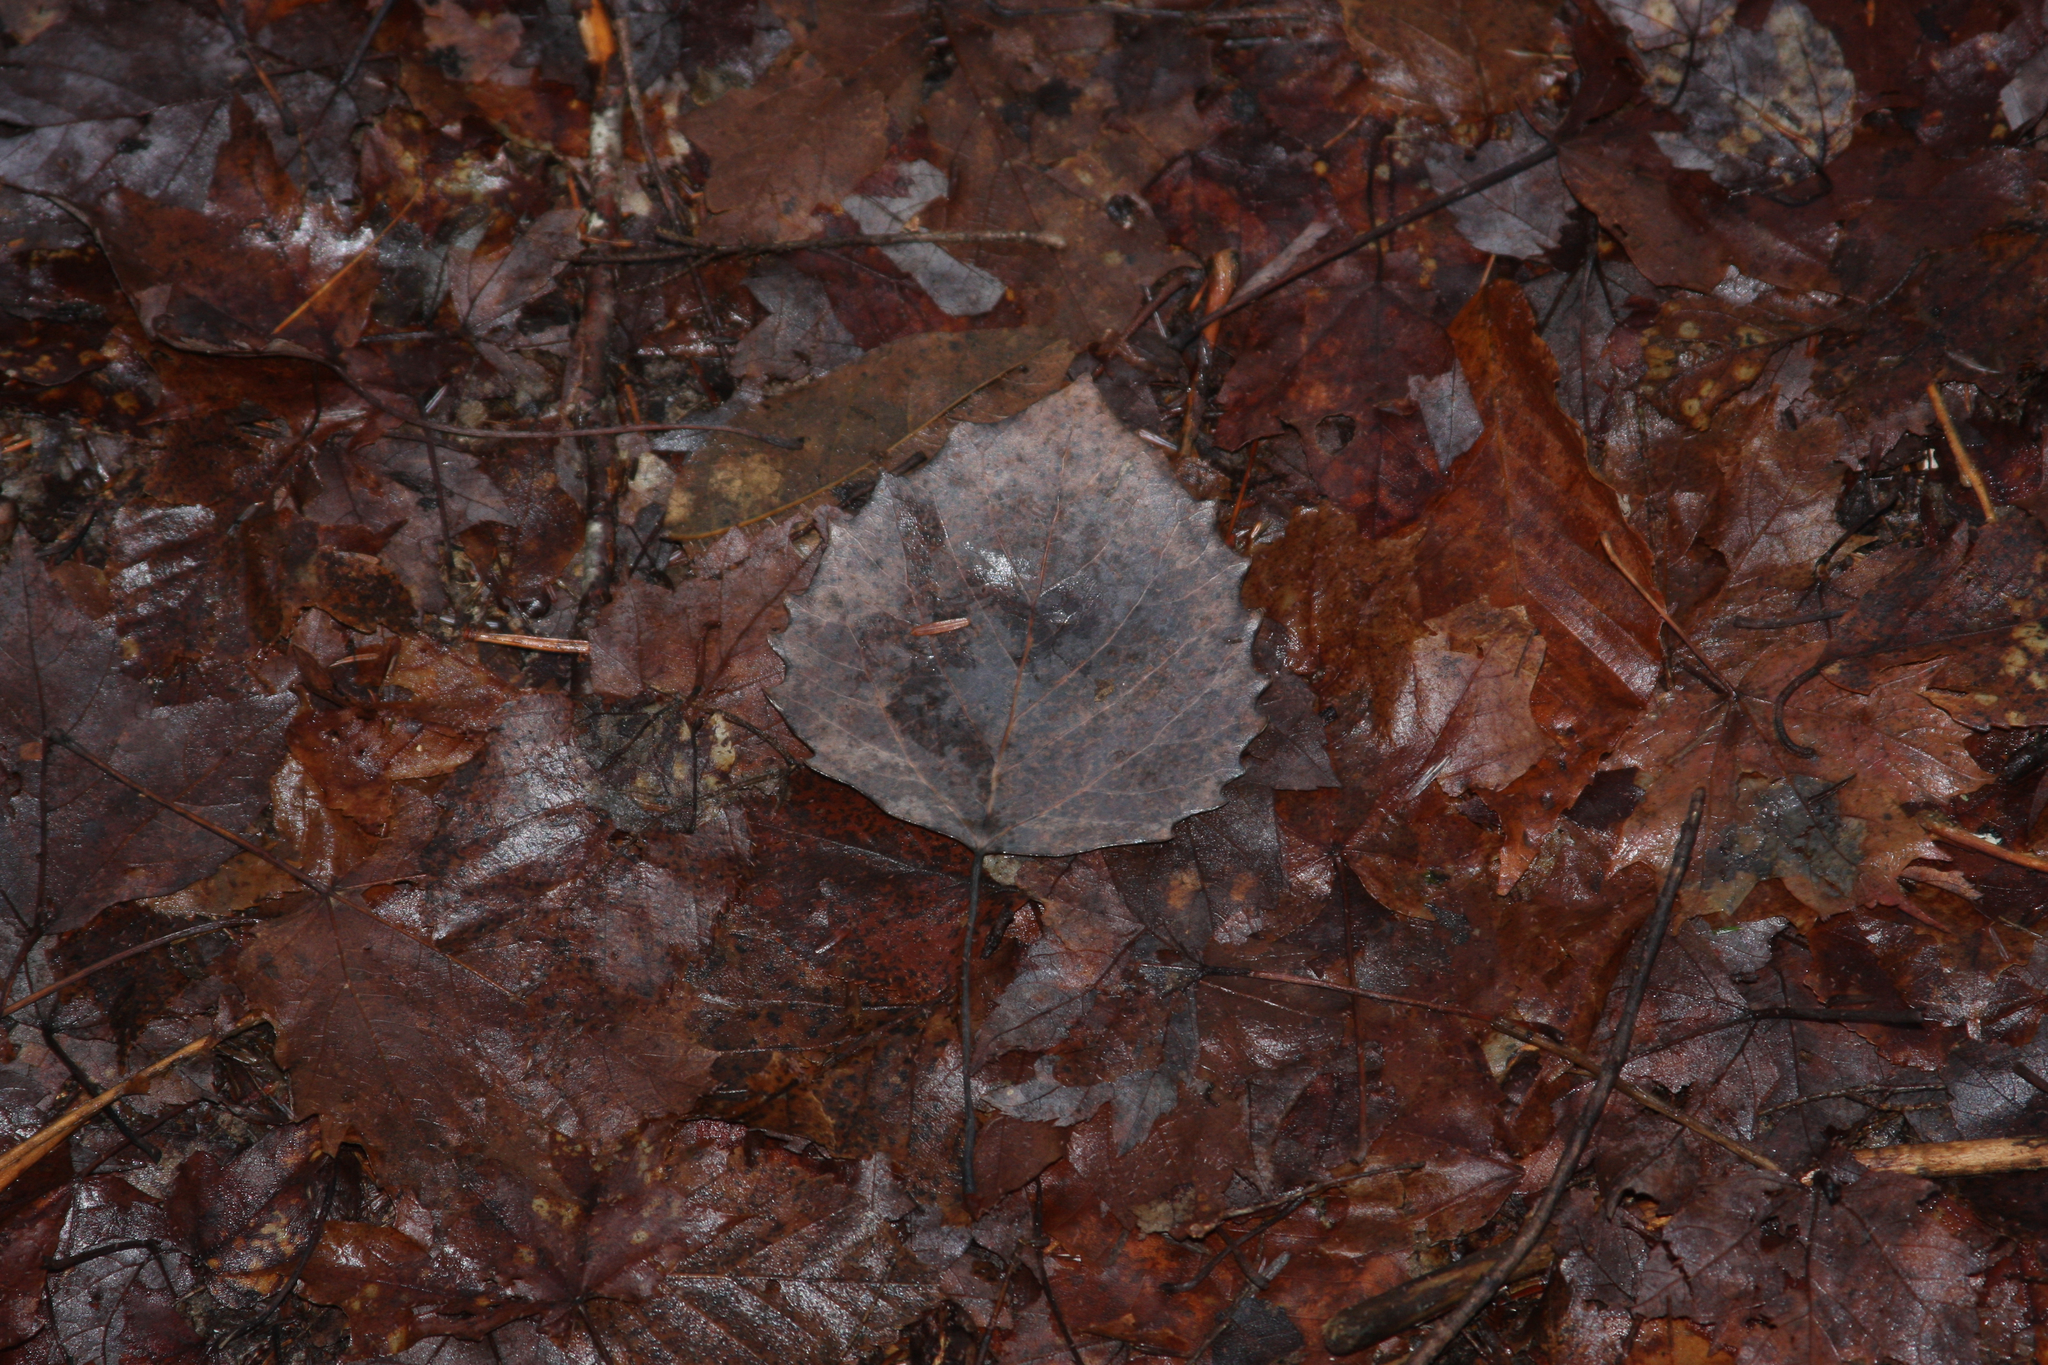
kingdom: Plantae
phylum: Tracheophyta
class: Magnoliopsida
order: Malpighiales
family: Salicaceae
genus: Populus
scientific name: Populus grandidentata
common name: Bigtooth aspen
